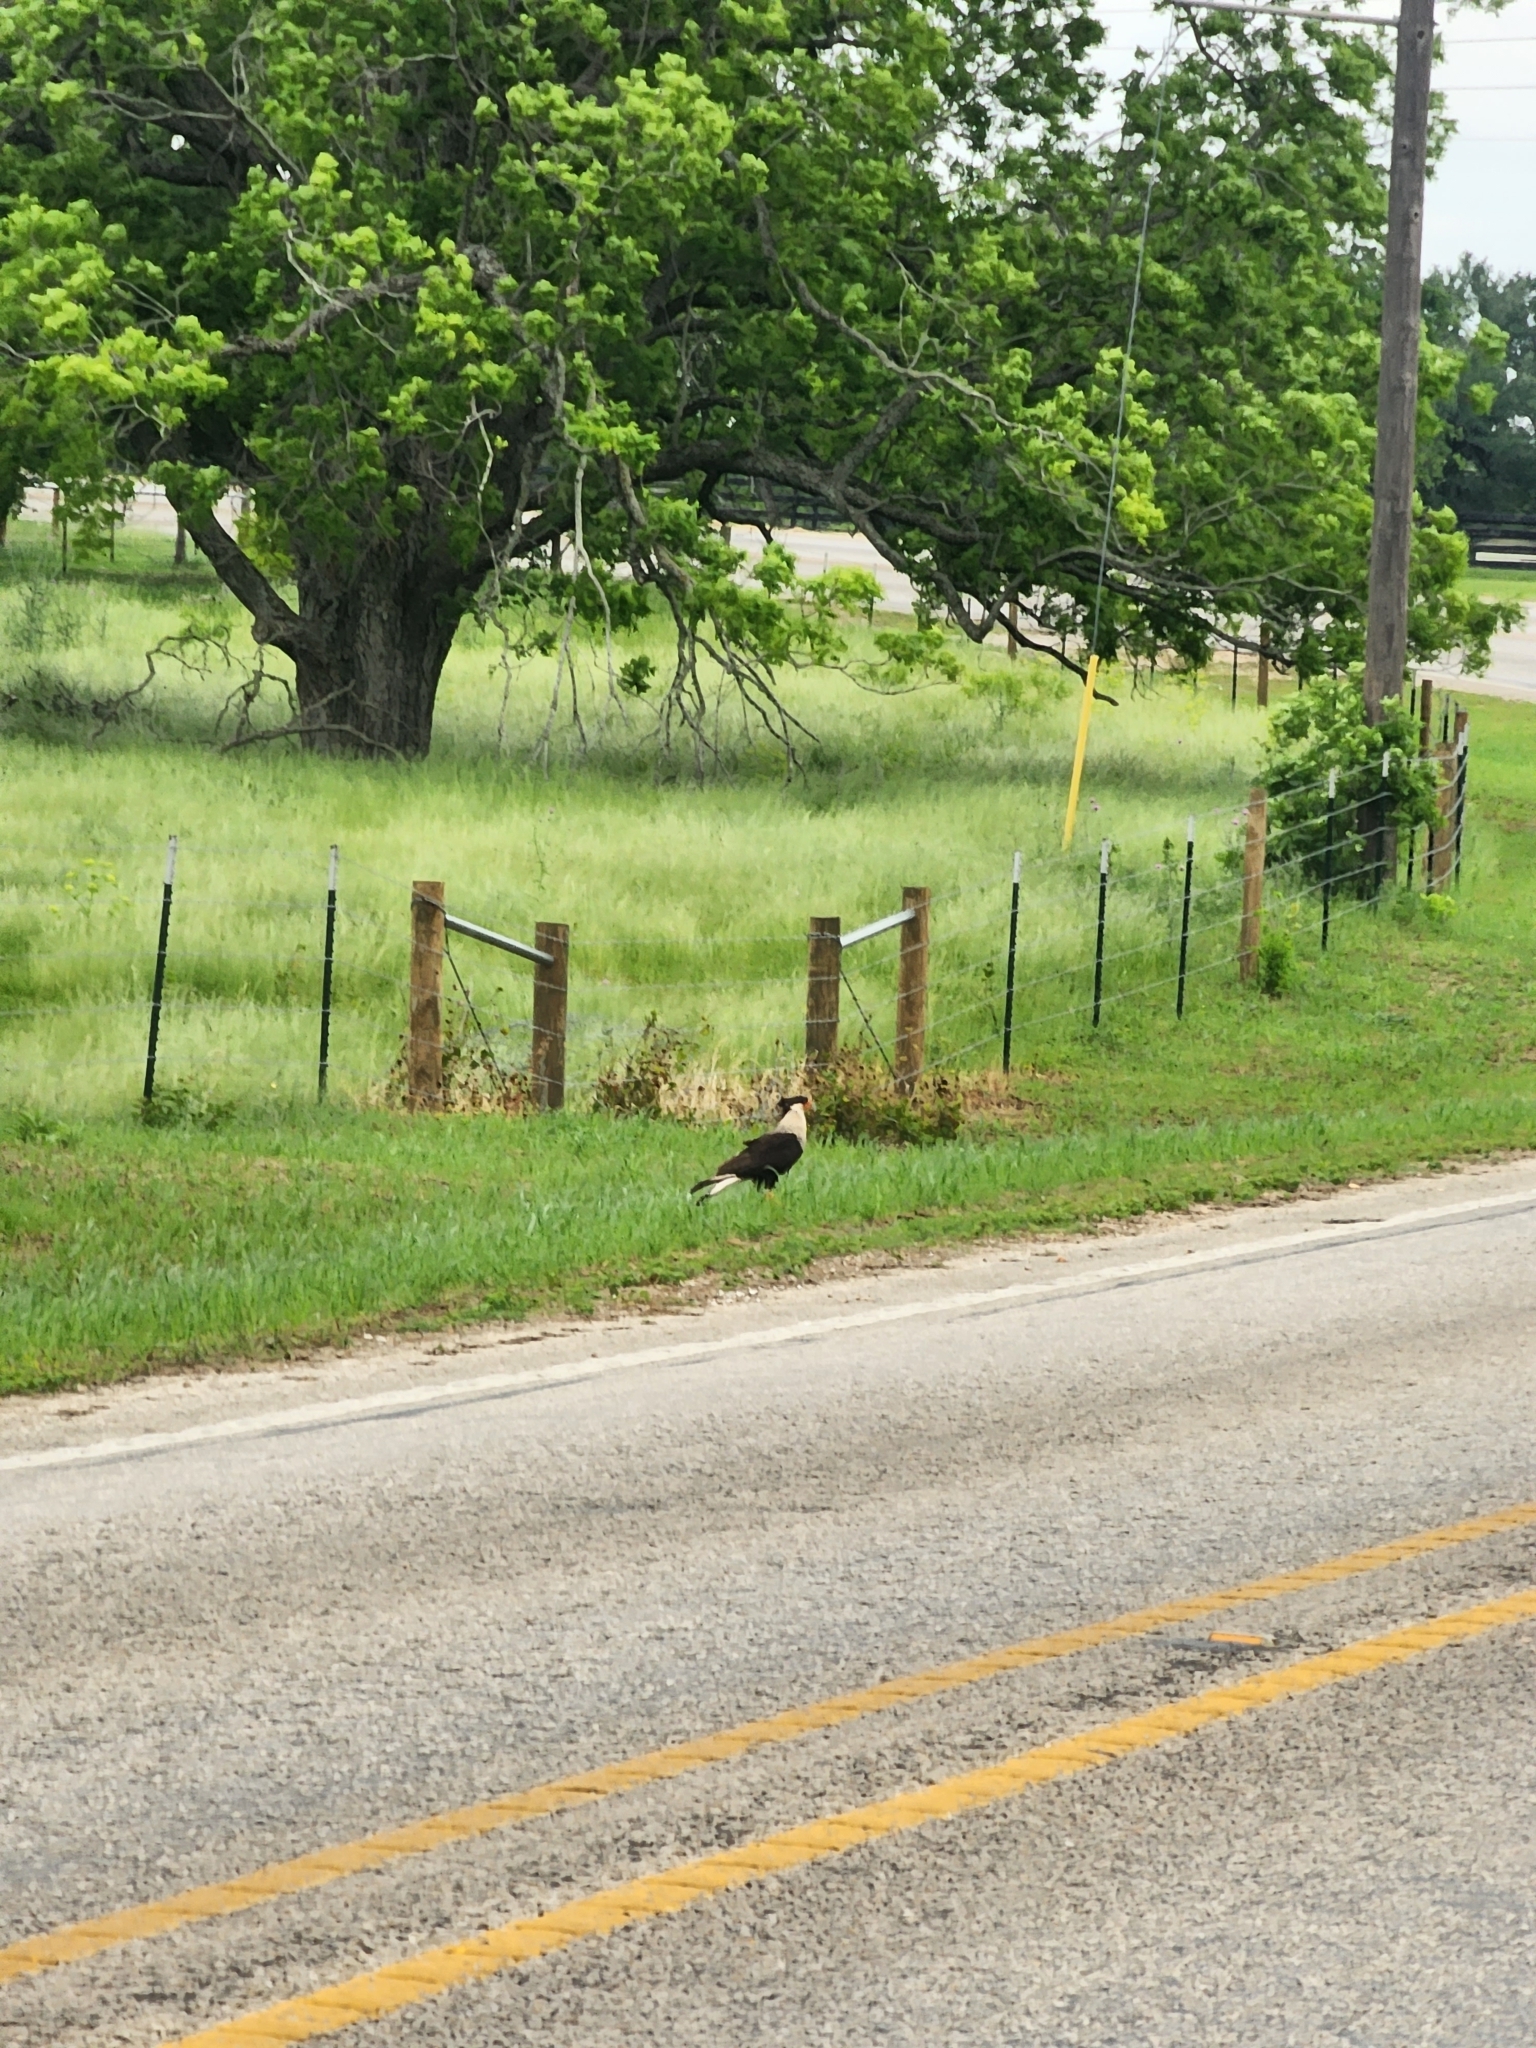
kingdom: Animalia
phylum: Chordata
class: Aves
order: Falconiformes
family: Falconidae
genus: Caracara
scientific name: Caracara plancus
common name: Southern caracara
